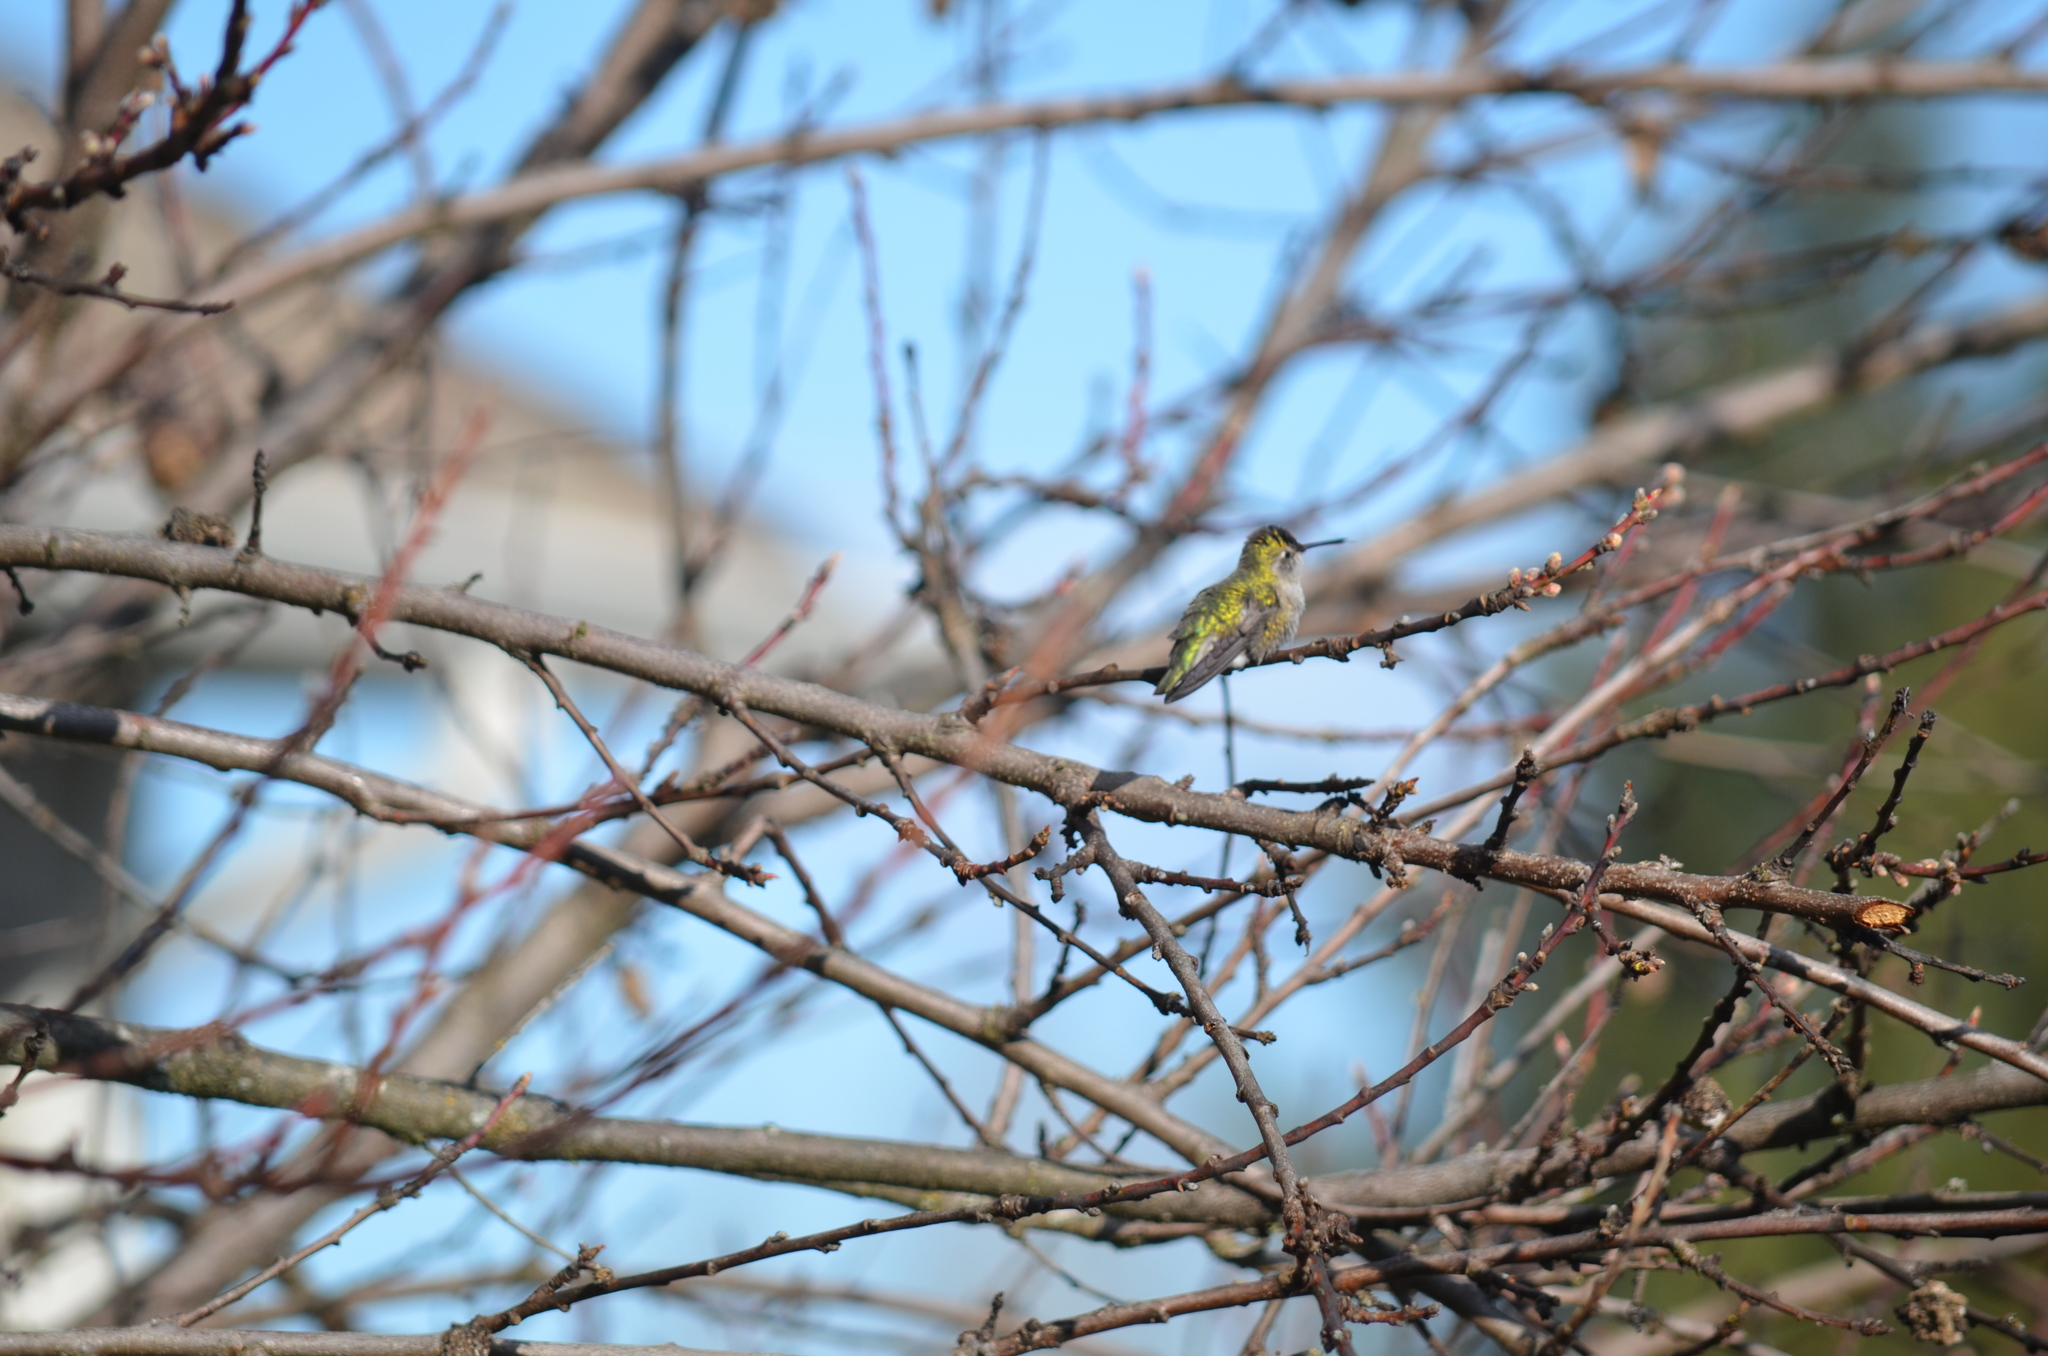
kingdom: Animalia
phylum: Chordata
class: Aves
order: Apodiformes
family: Trochilidae
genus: Calypte
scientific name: Calypte anna
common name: Anna's hummingbird
